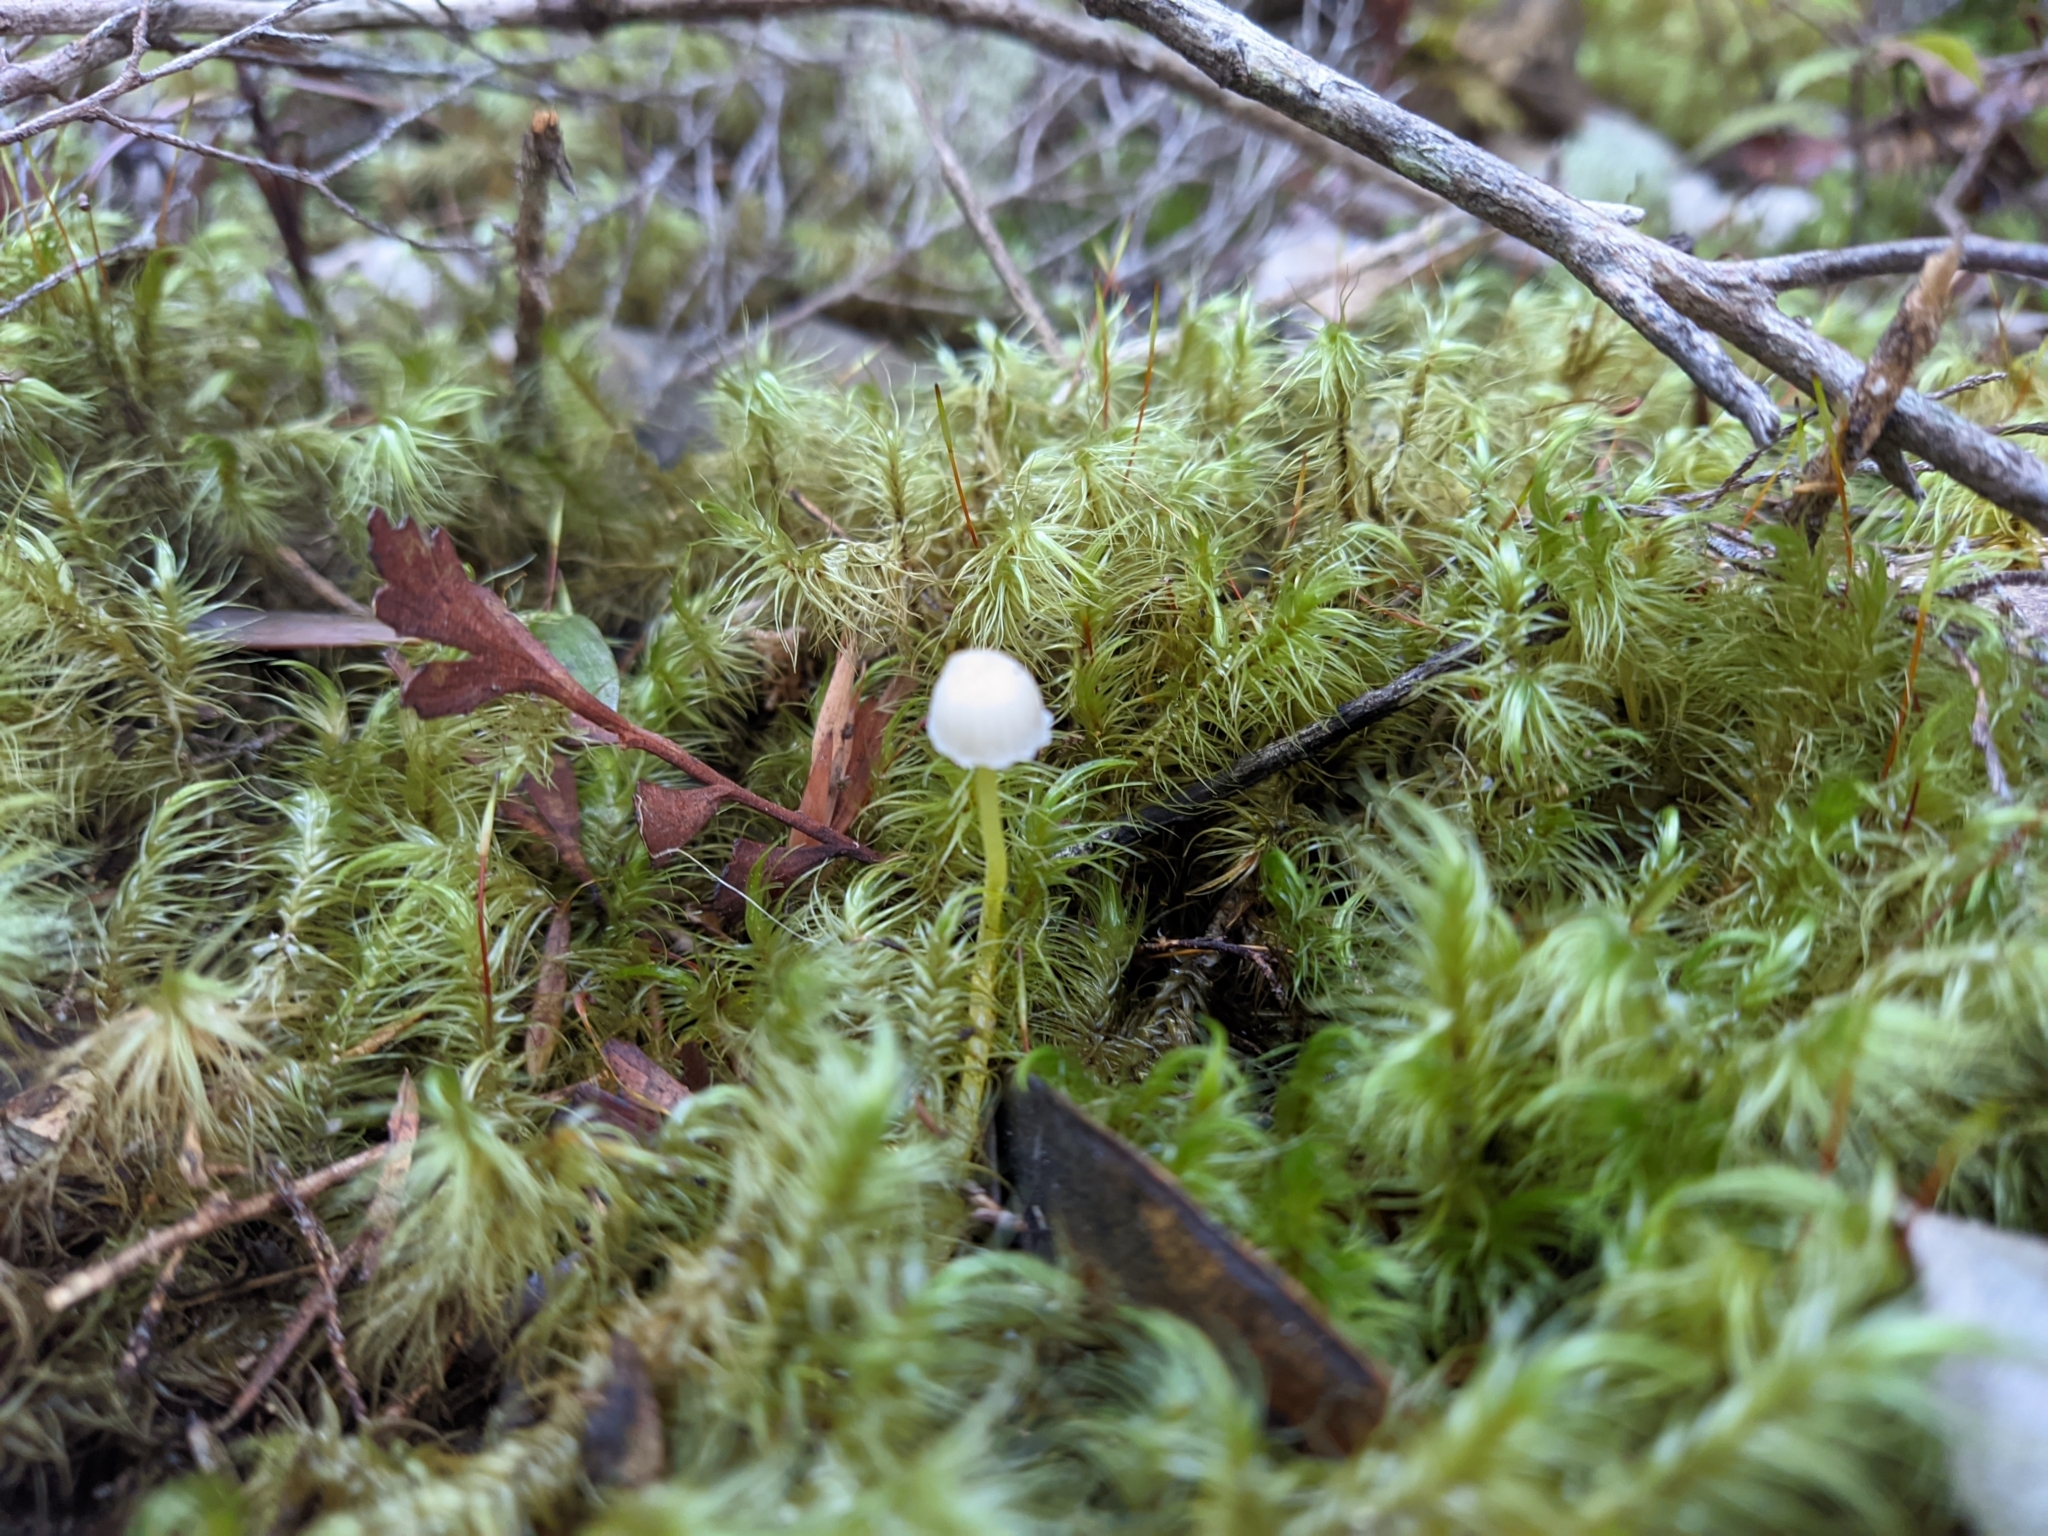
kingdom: Fungi
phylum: Basidiomycota
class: Agaricomycetes
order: Agaricales
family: Mycenaceae
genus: Mycena
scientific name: Mycena subviscosa
